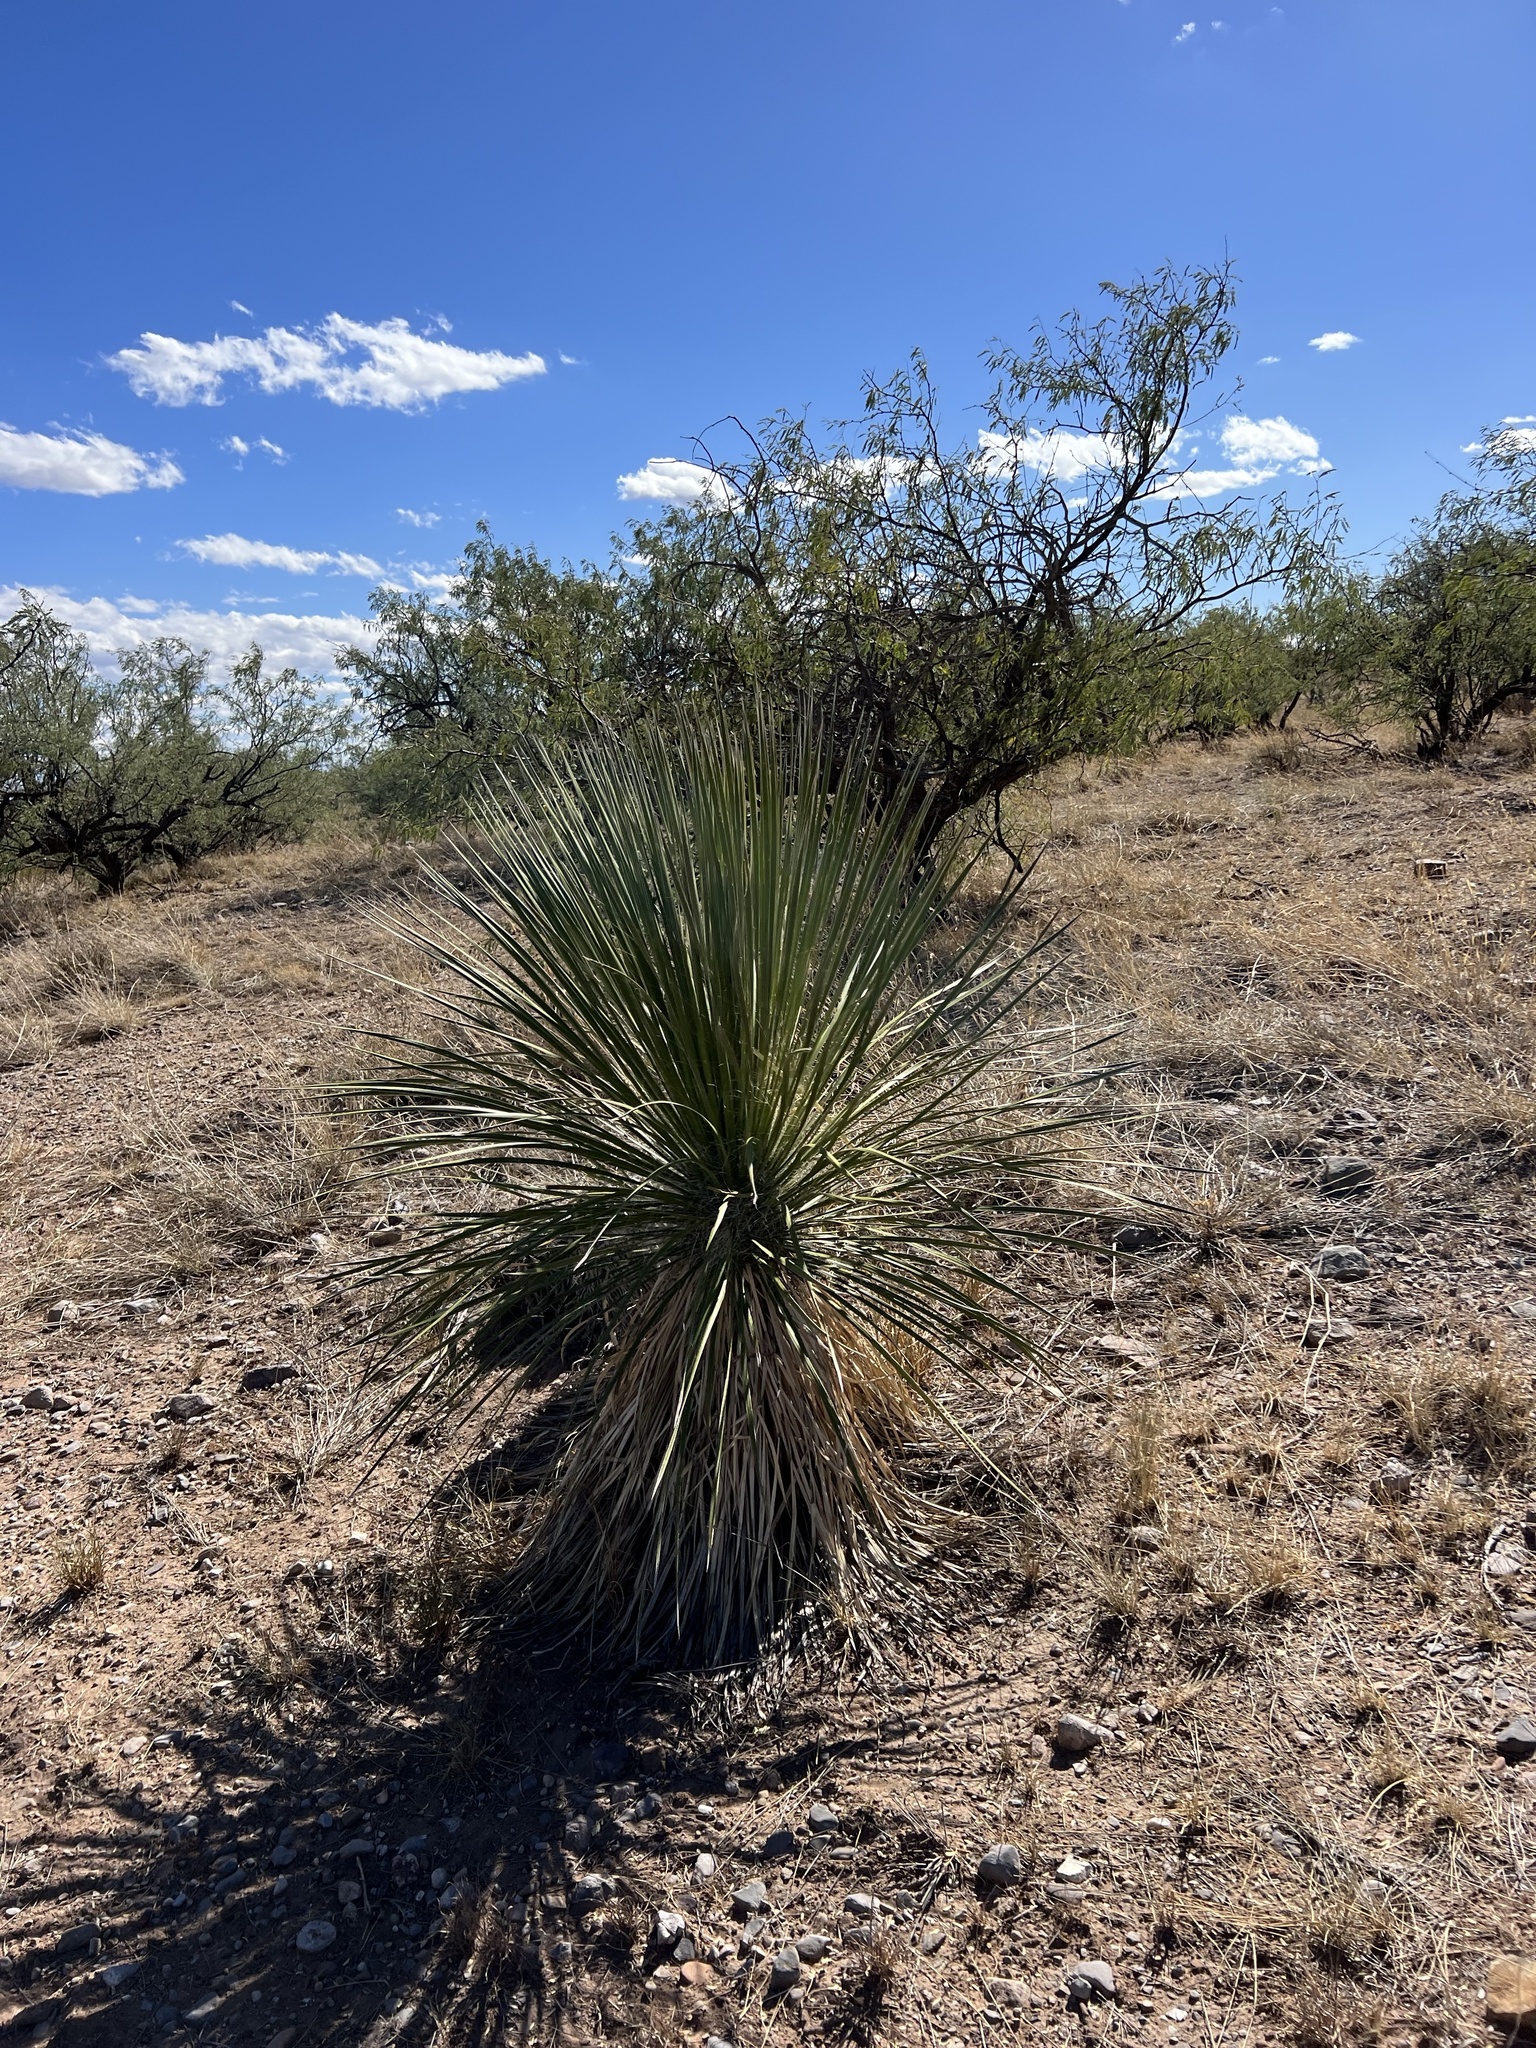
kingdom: Plantae
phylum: Tracheophyta
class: Liliopsida
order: Asparagales
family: Asparagaceae
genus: Yucca
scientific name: Yucca elata
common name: Palmella
